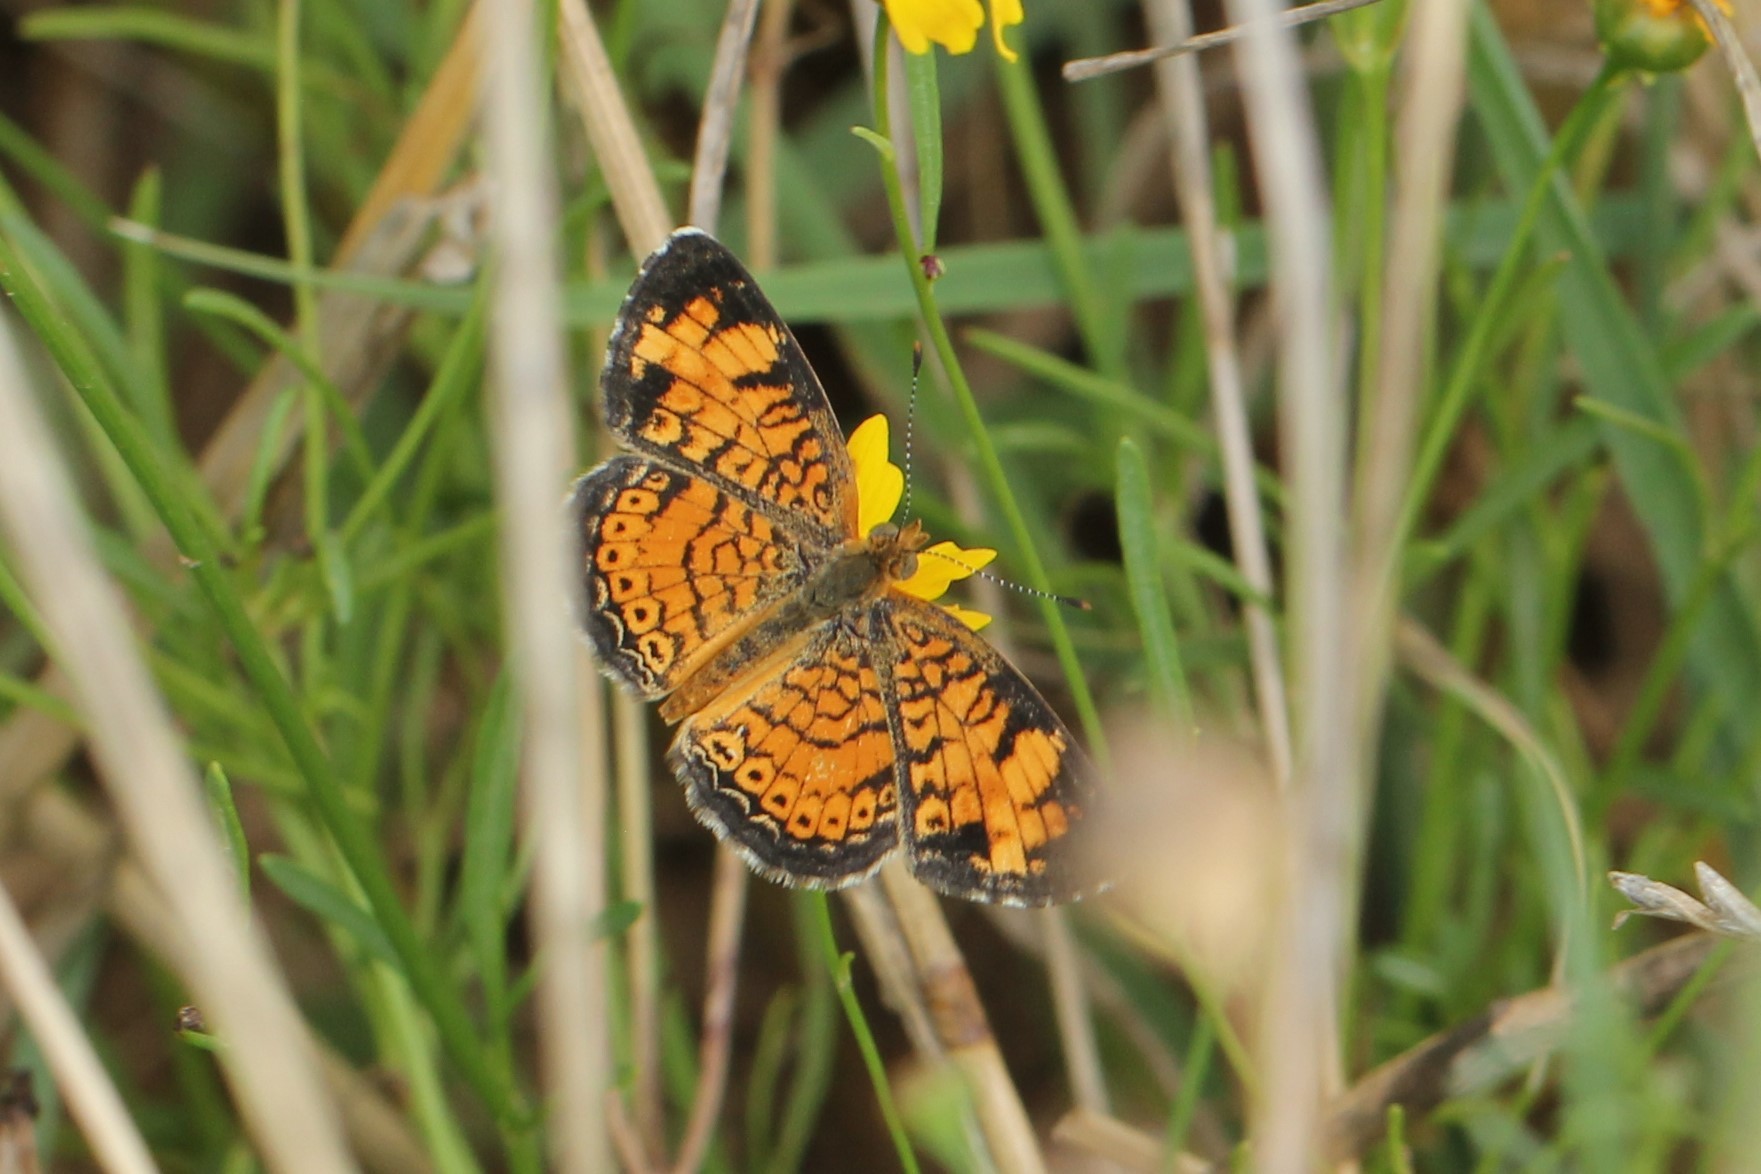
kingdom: Animalia
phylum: Arthropoda
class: Insecta
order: Lepidoptera
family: Nymphalidae
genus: Phyciodes
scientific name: Phyciodes tharos
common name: Pearl crescent
